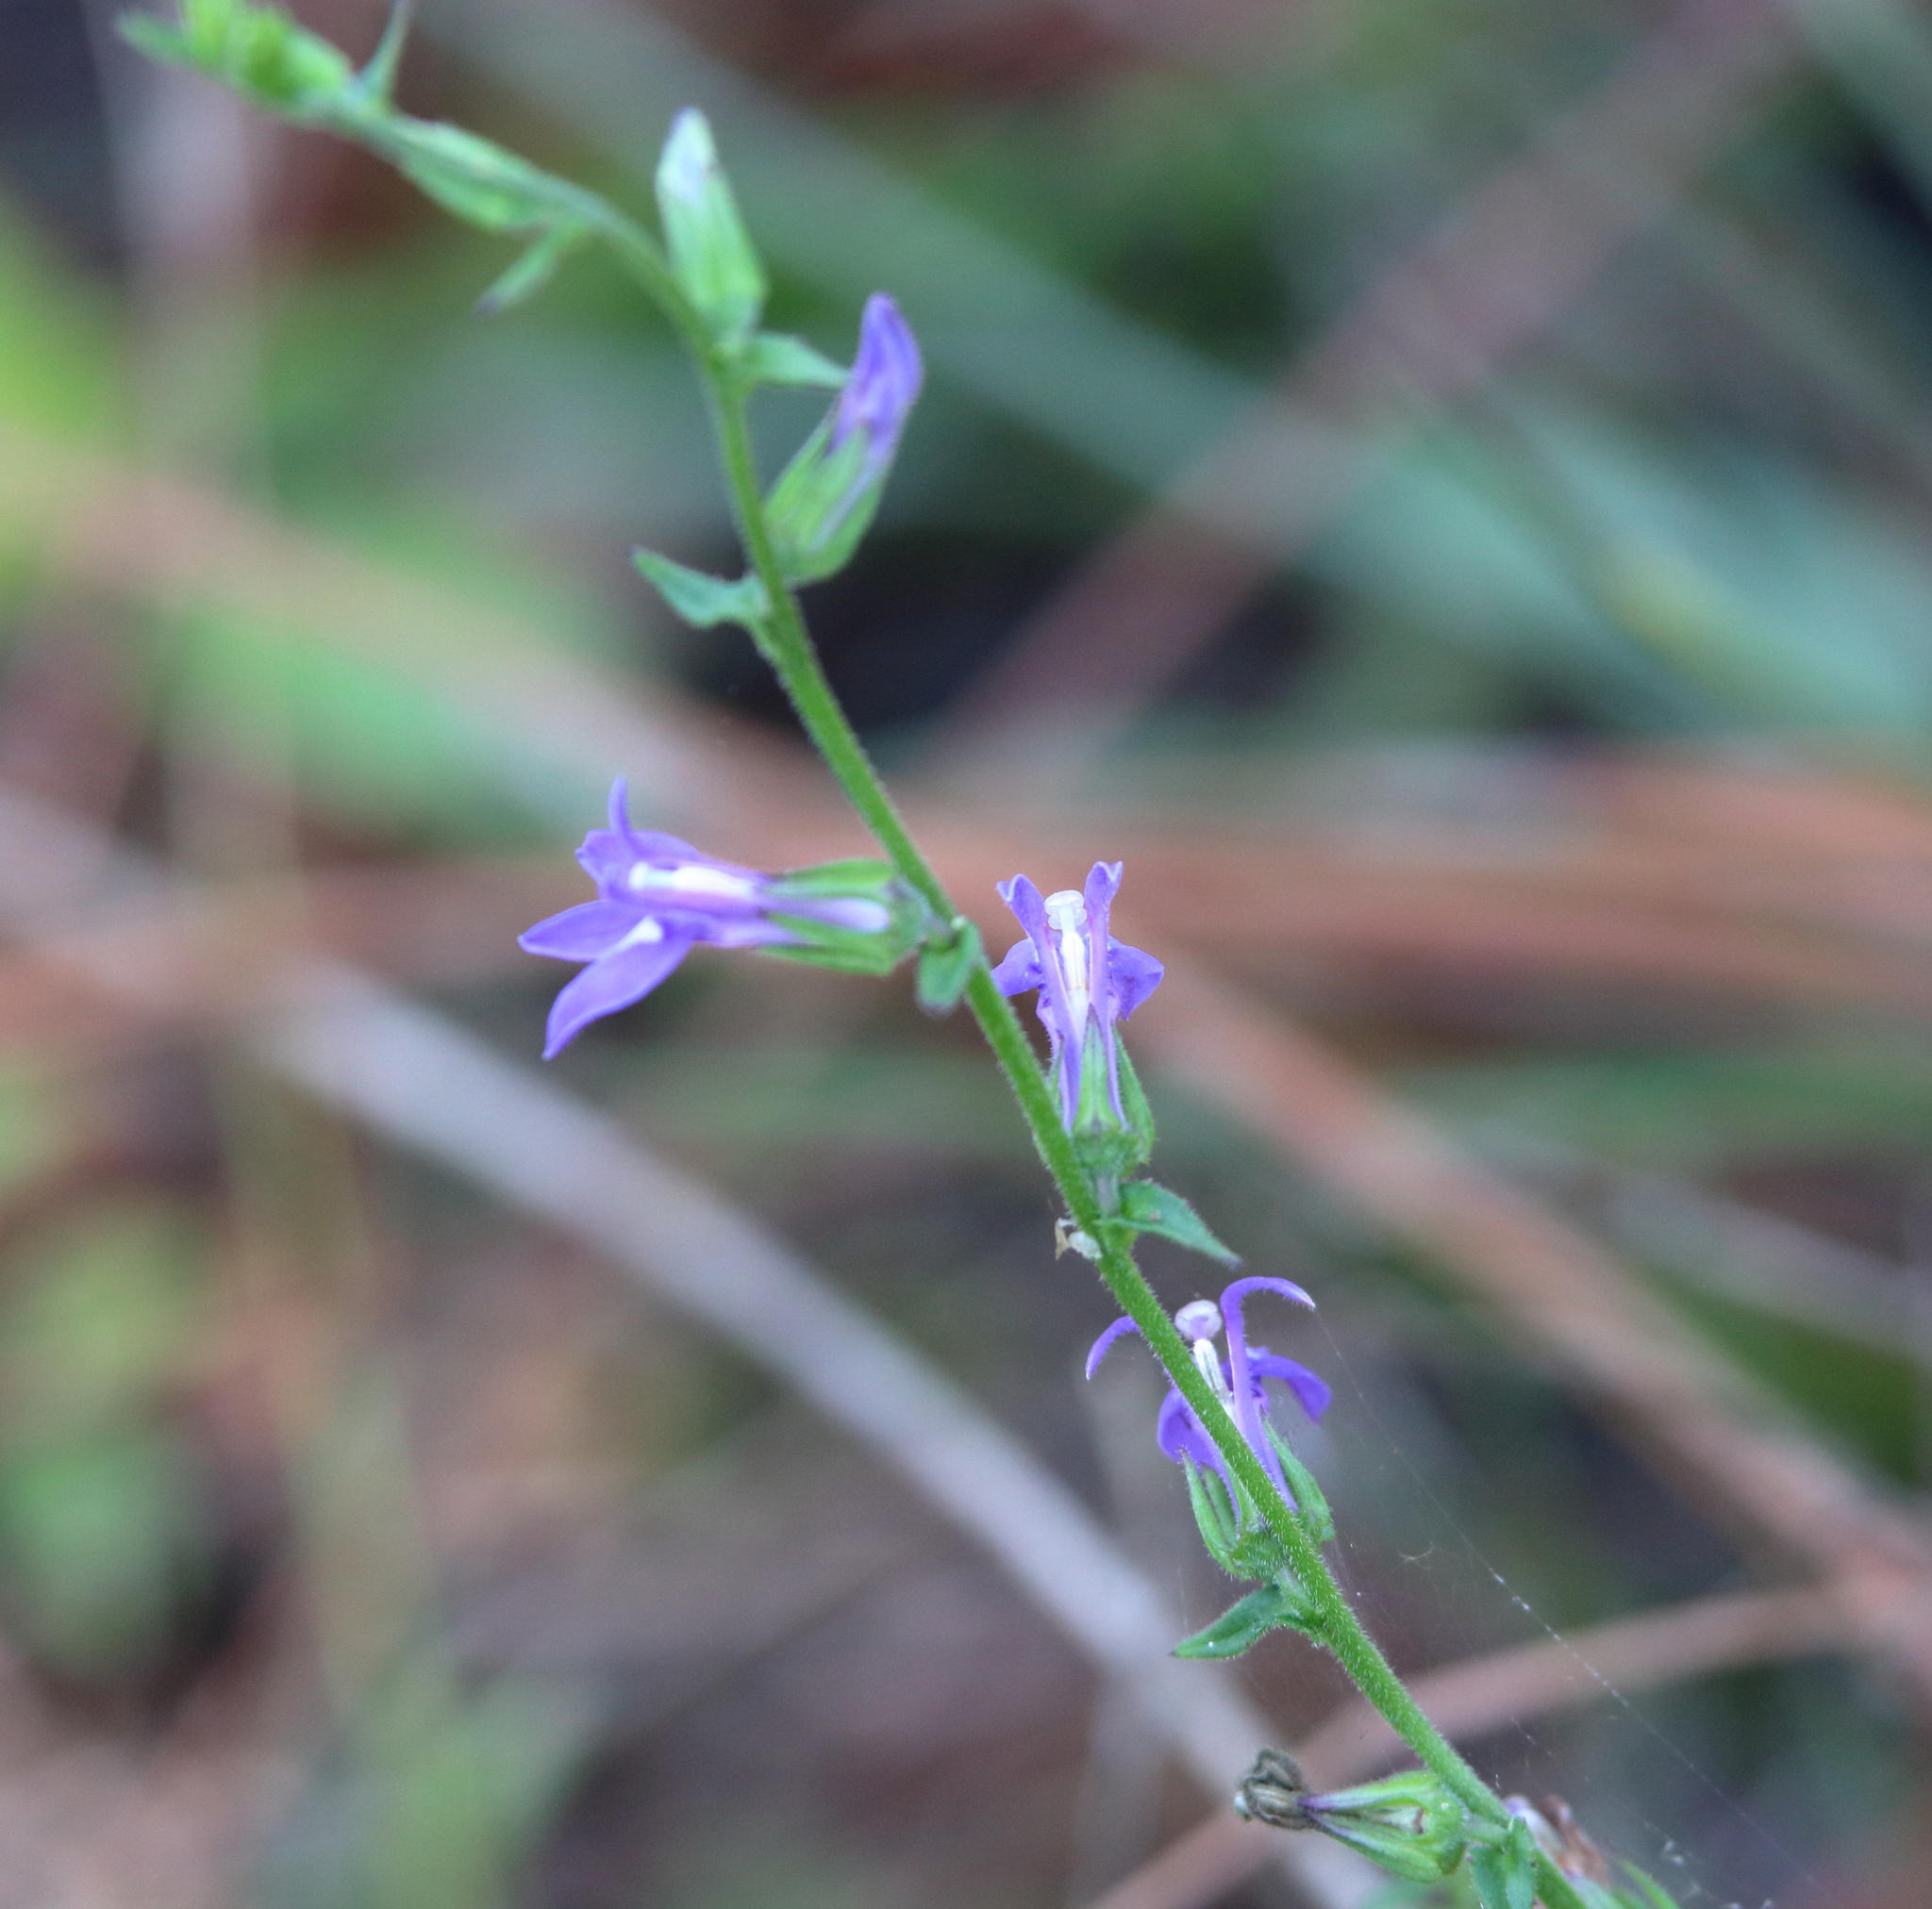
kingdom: Plantae
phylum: Tracheophyta
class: Magnoliopsida
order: Asterales
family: Campanulaceae
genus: Lobelia
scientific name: Lobelia puberula
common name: Purple dewdrop
